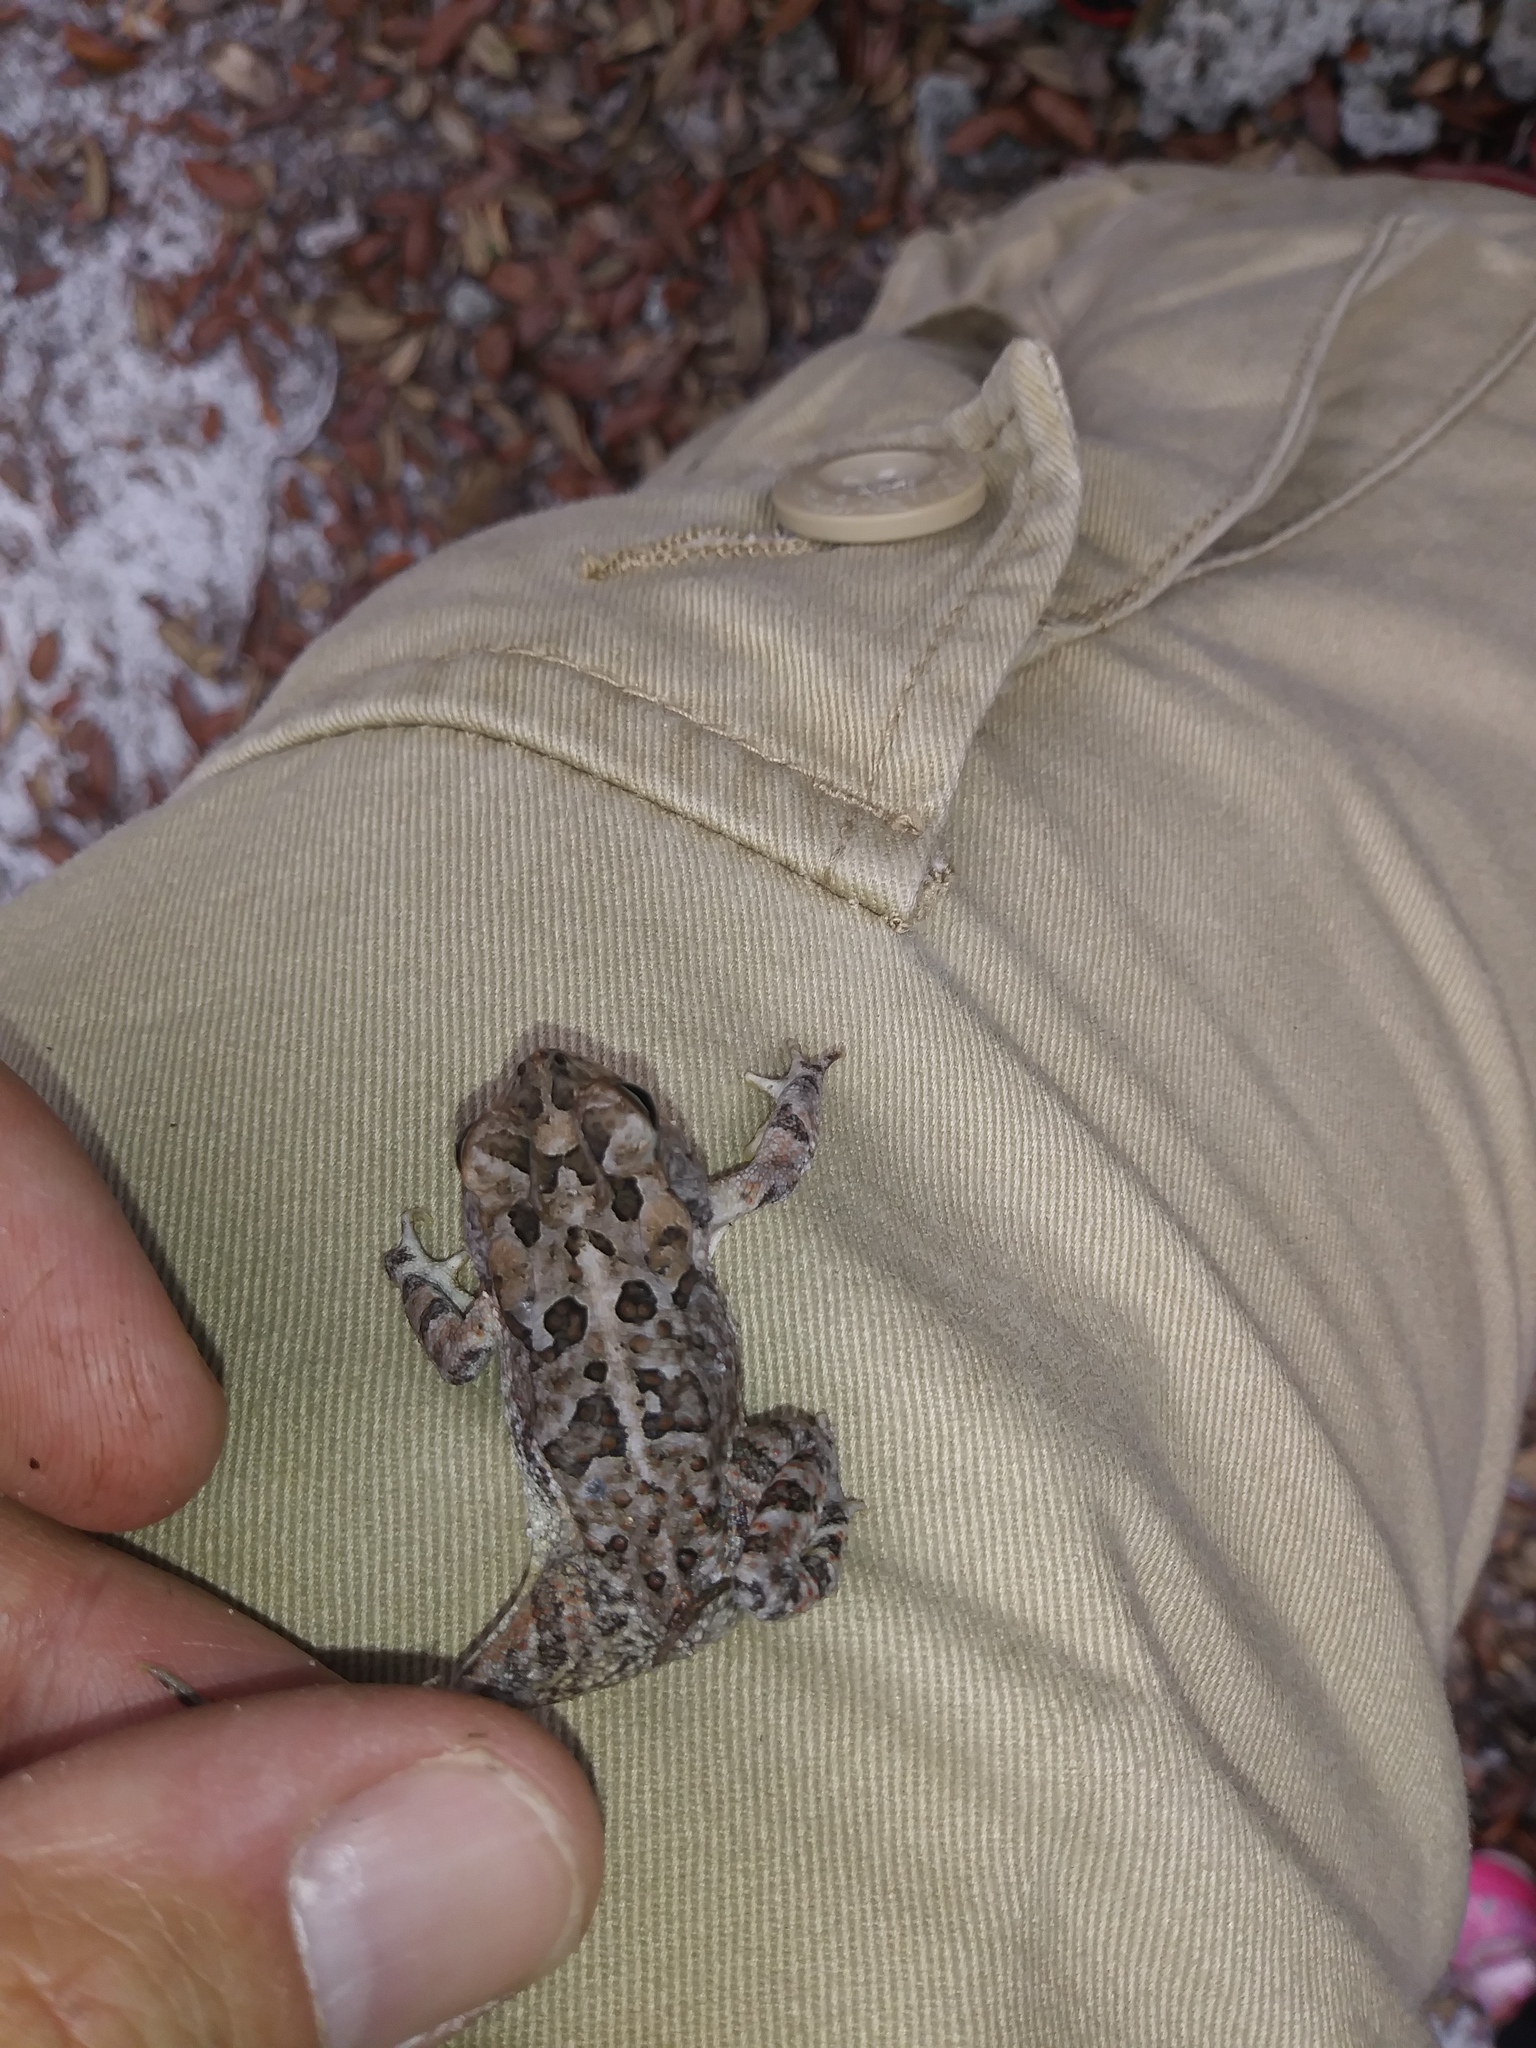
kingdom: Animalia
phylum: Chordata
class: Amphibia
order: Anura
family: Bufonidae
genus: Anaxyrus
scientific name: Anaxyrus terrestris
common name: Southern toad
